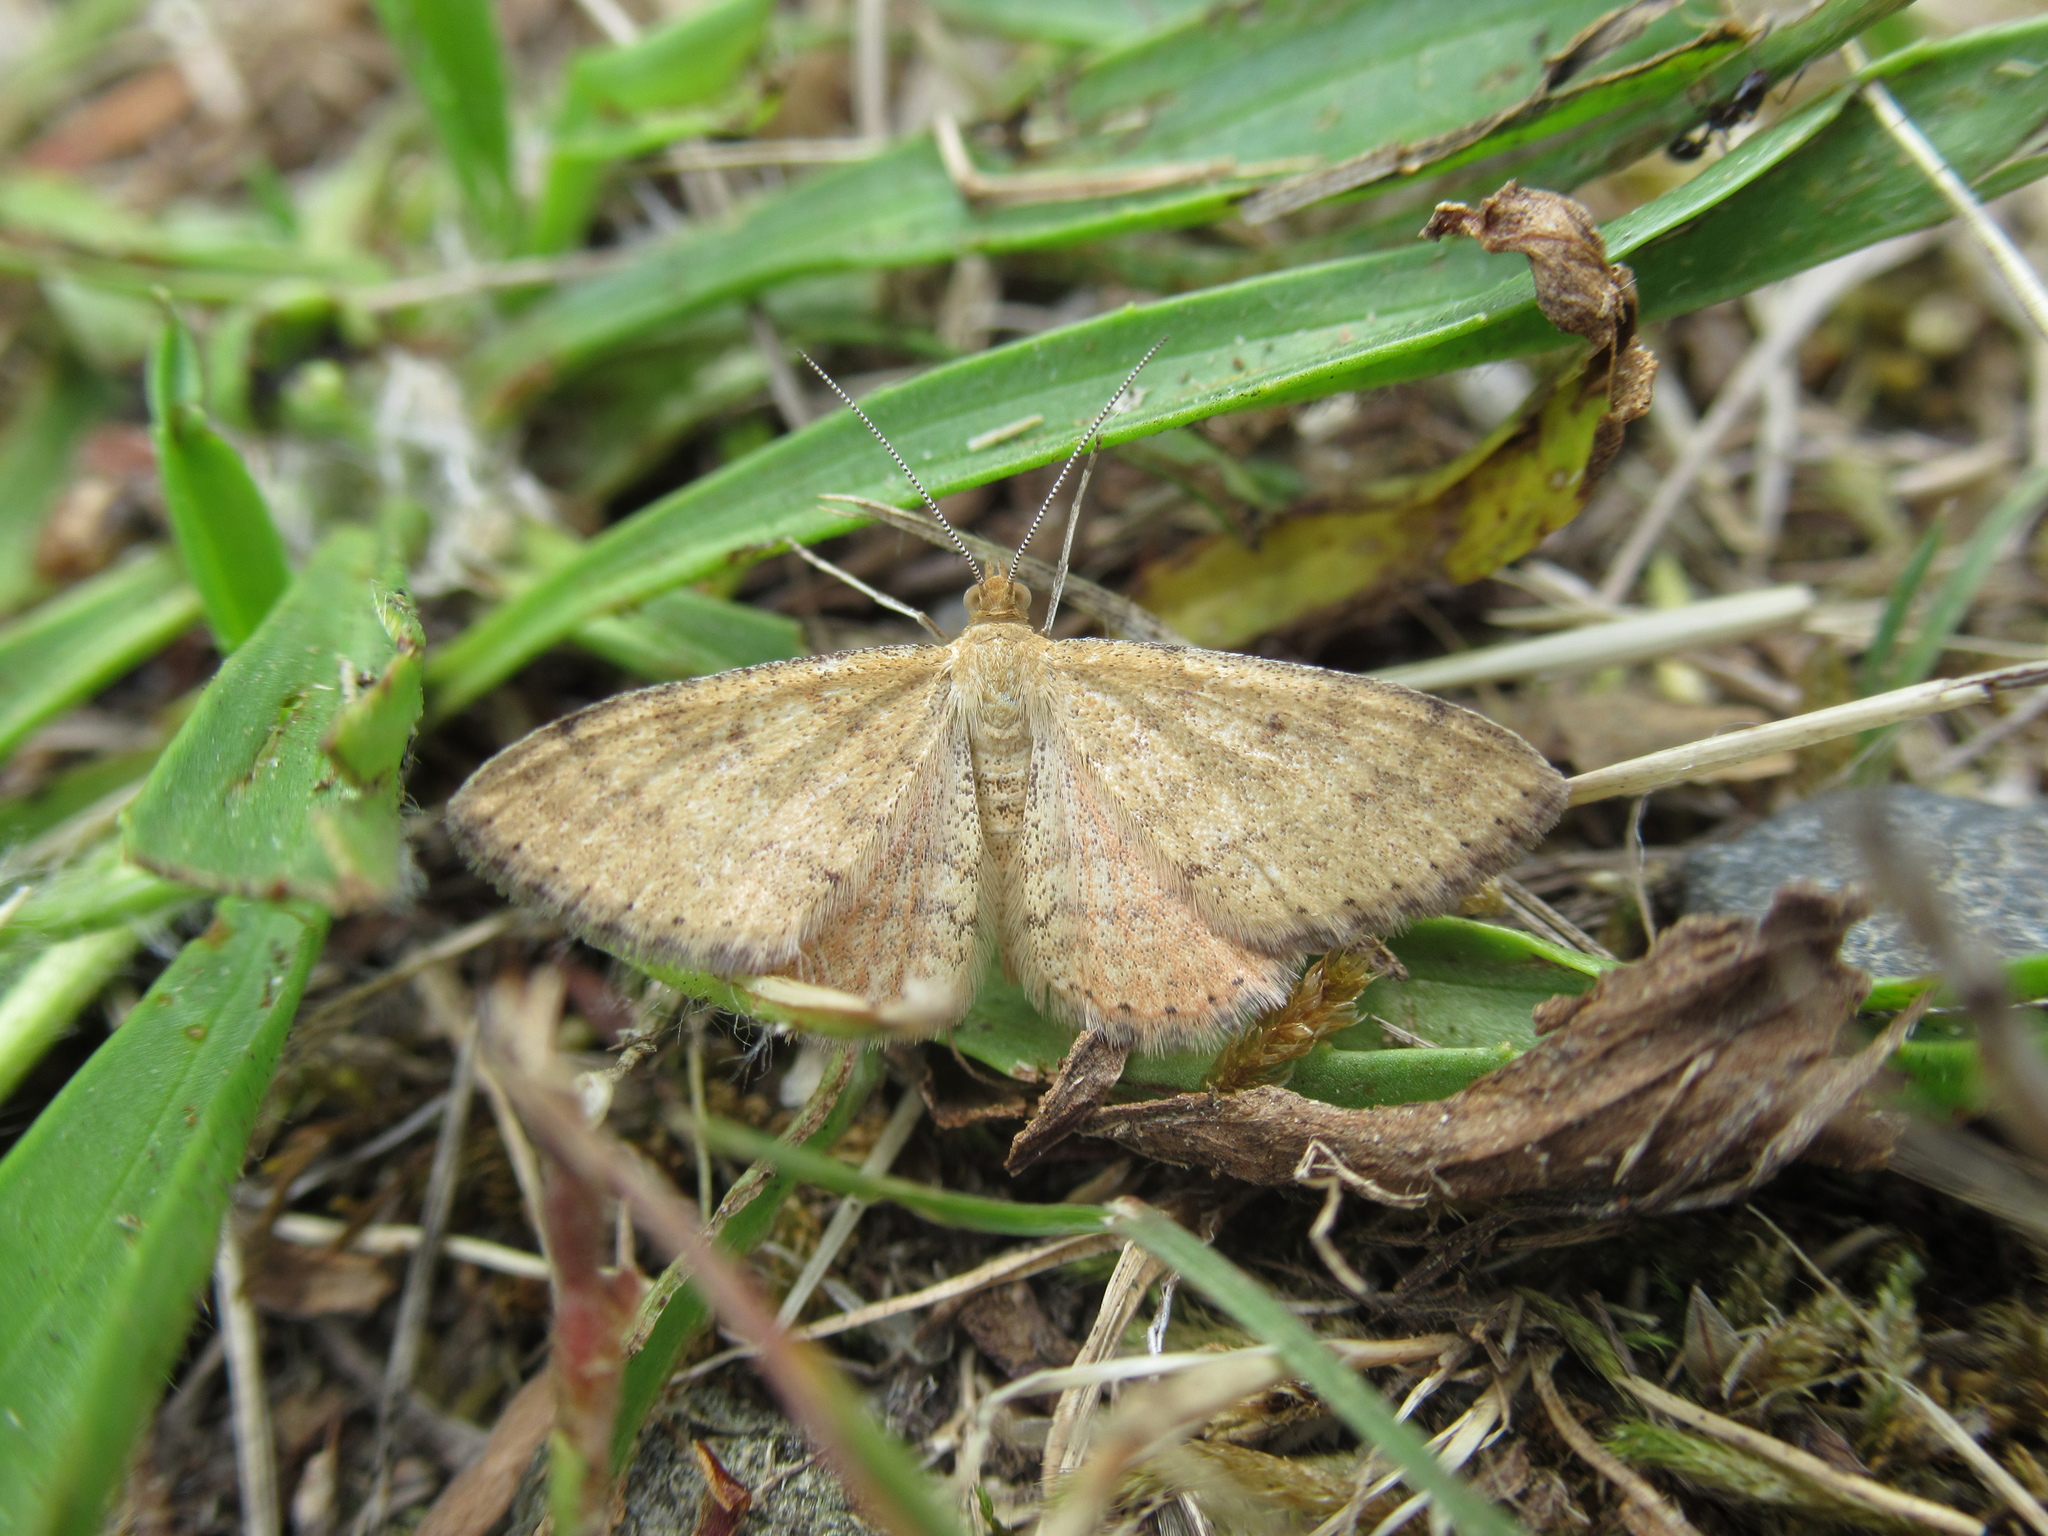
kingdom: Animalia
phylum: Arthropoda
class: Insecta
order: Lepidoptera
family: Geometridae
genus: Scopula
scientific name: Scopula rubraria
